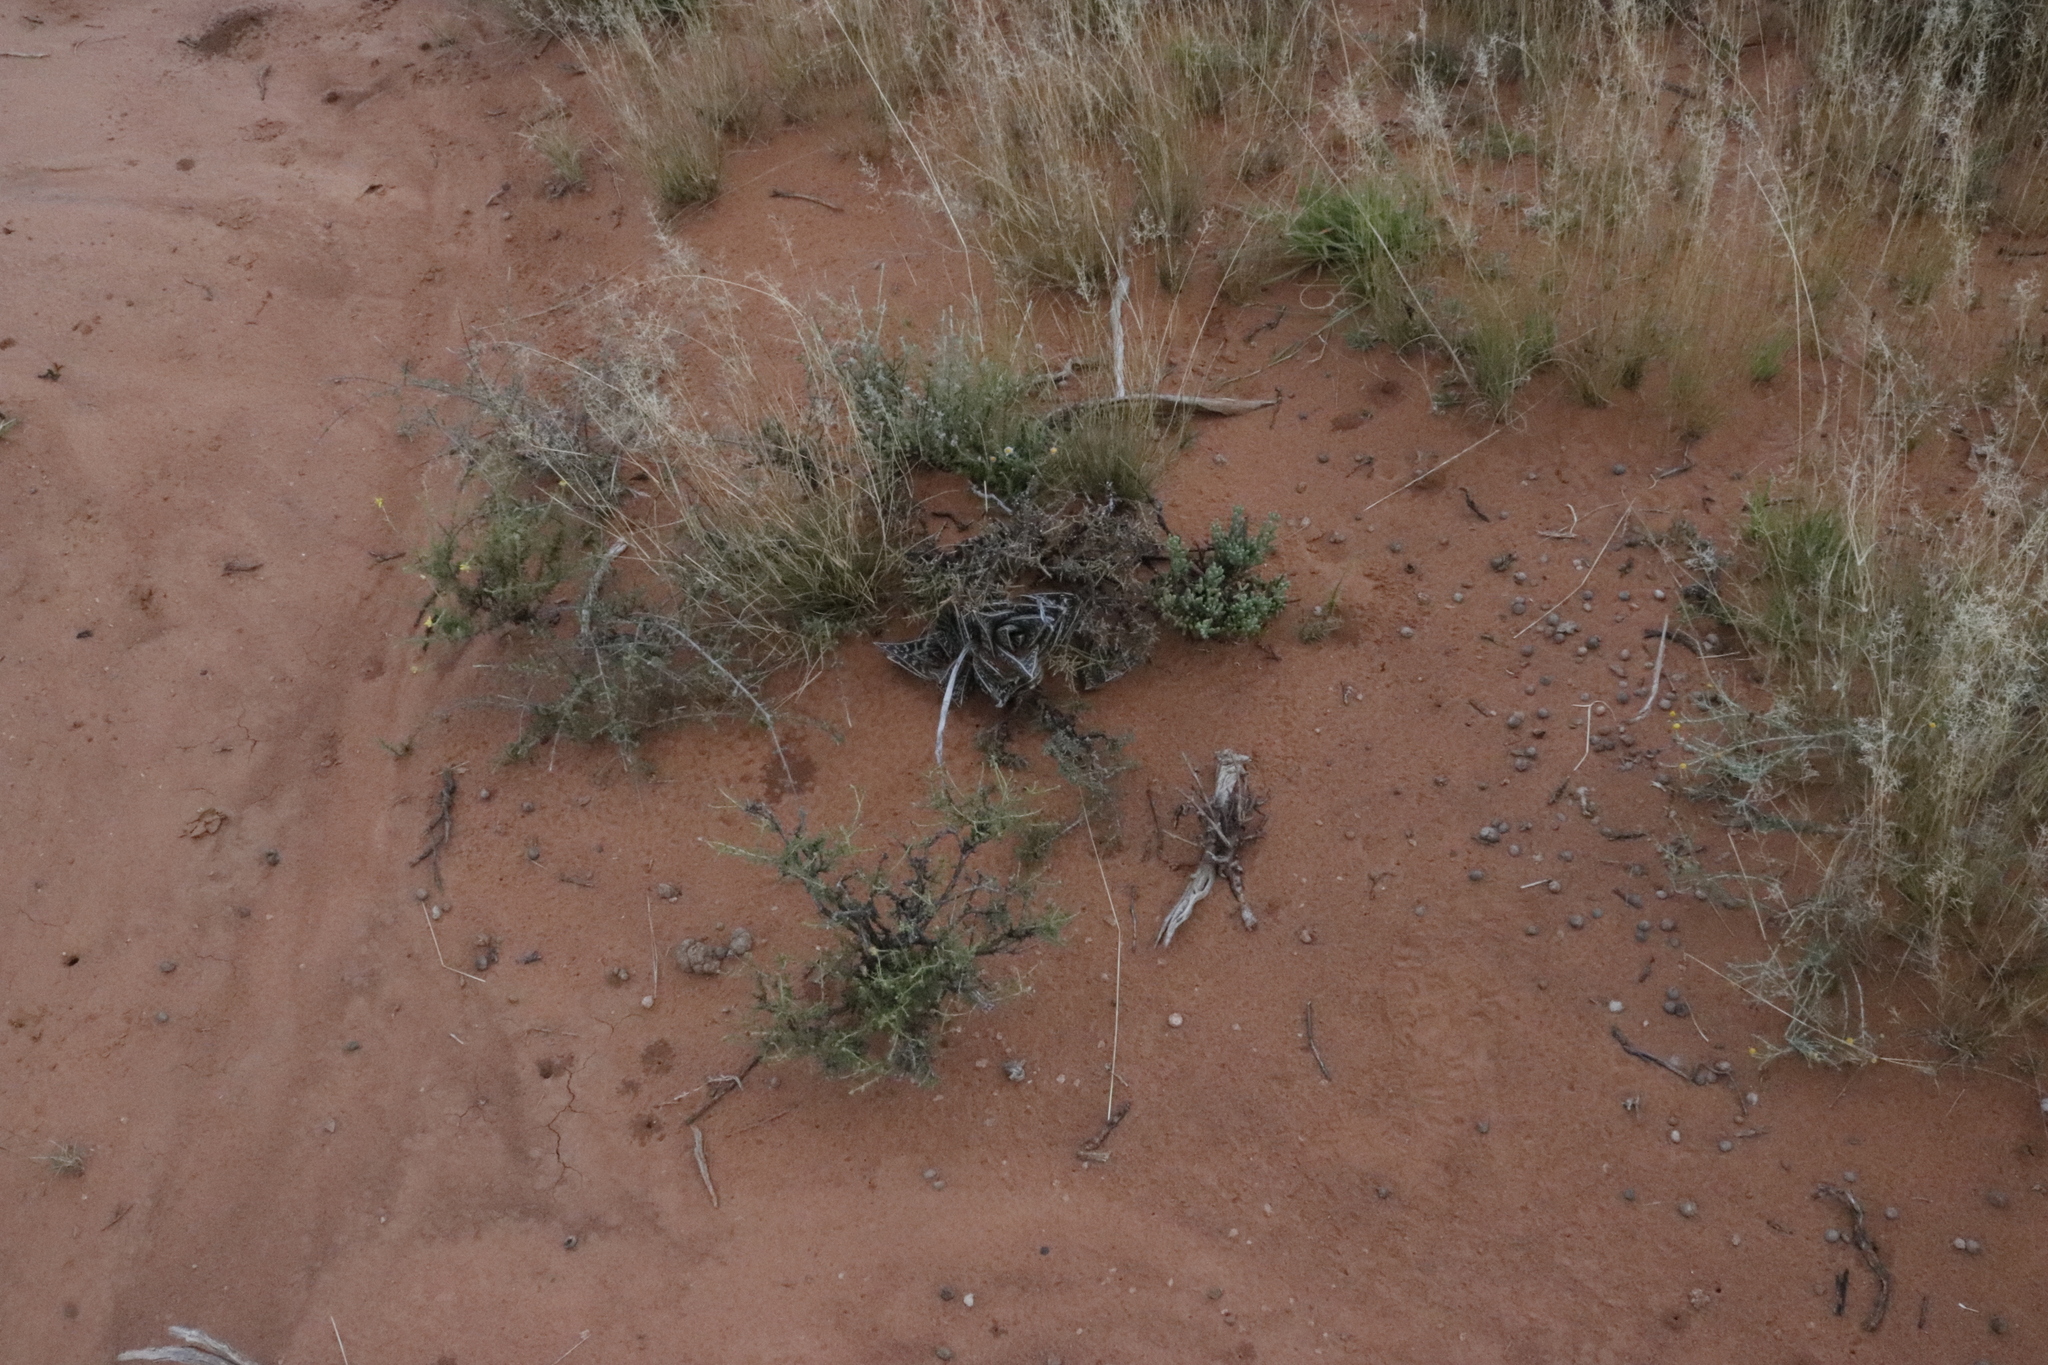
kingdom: Plantae
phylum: Tracheophyta
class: Liliopsida
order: Asparagales
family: Asphodelaceae
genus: Gonialoe
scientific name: Gonialoe variegata
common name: Aloe variegata
